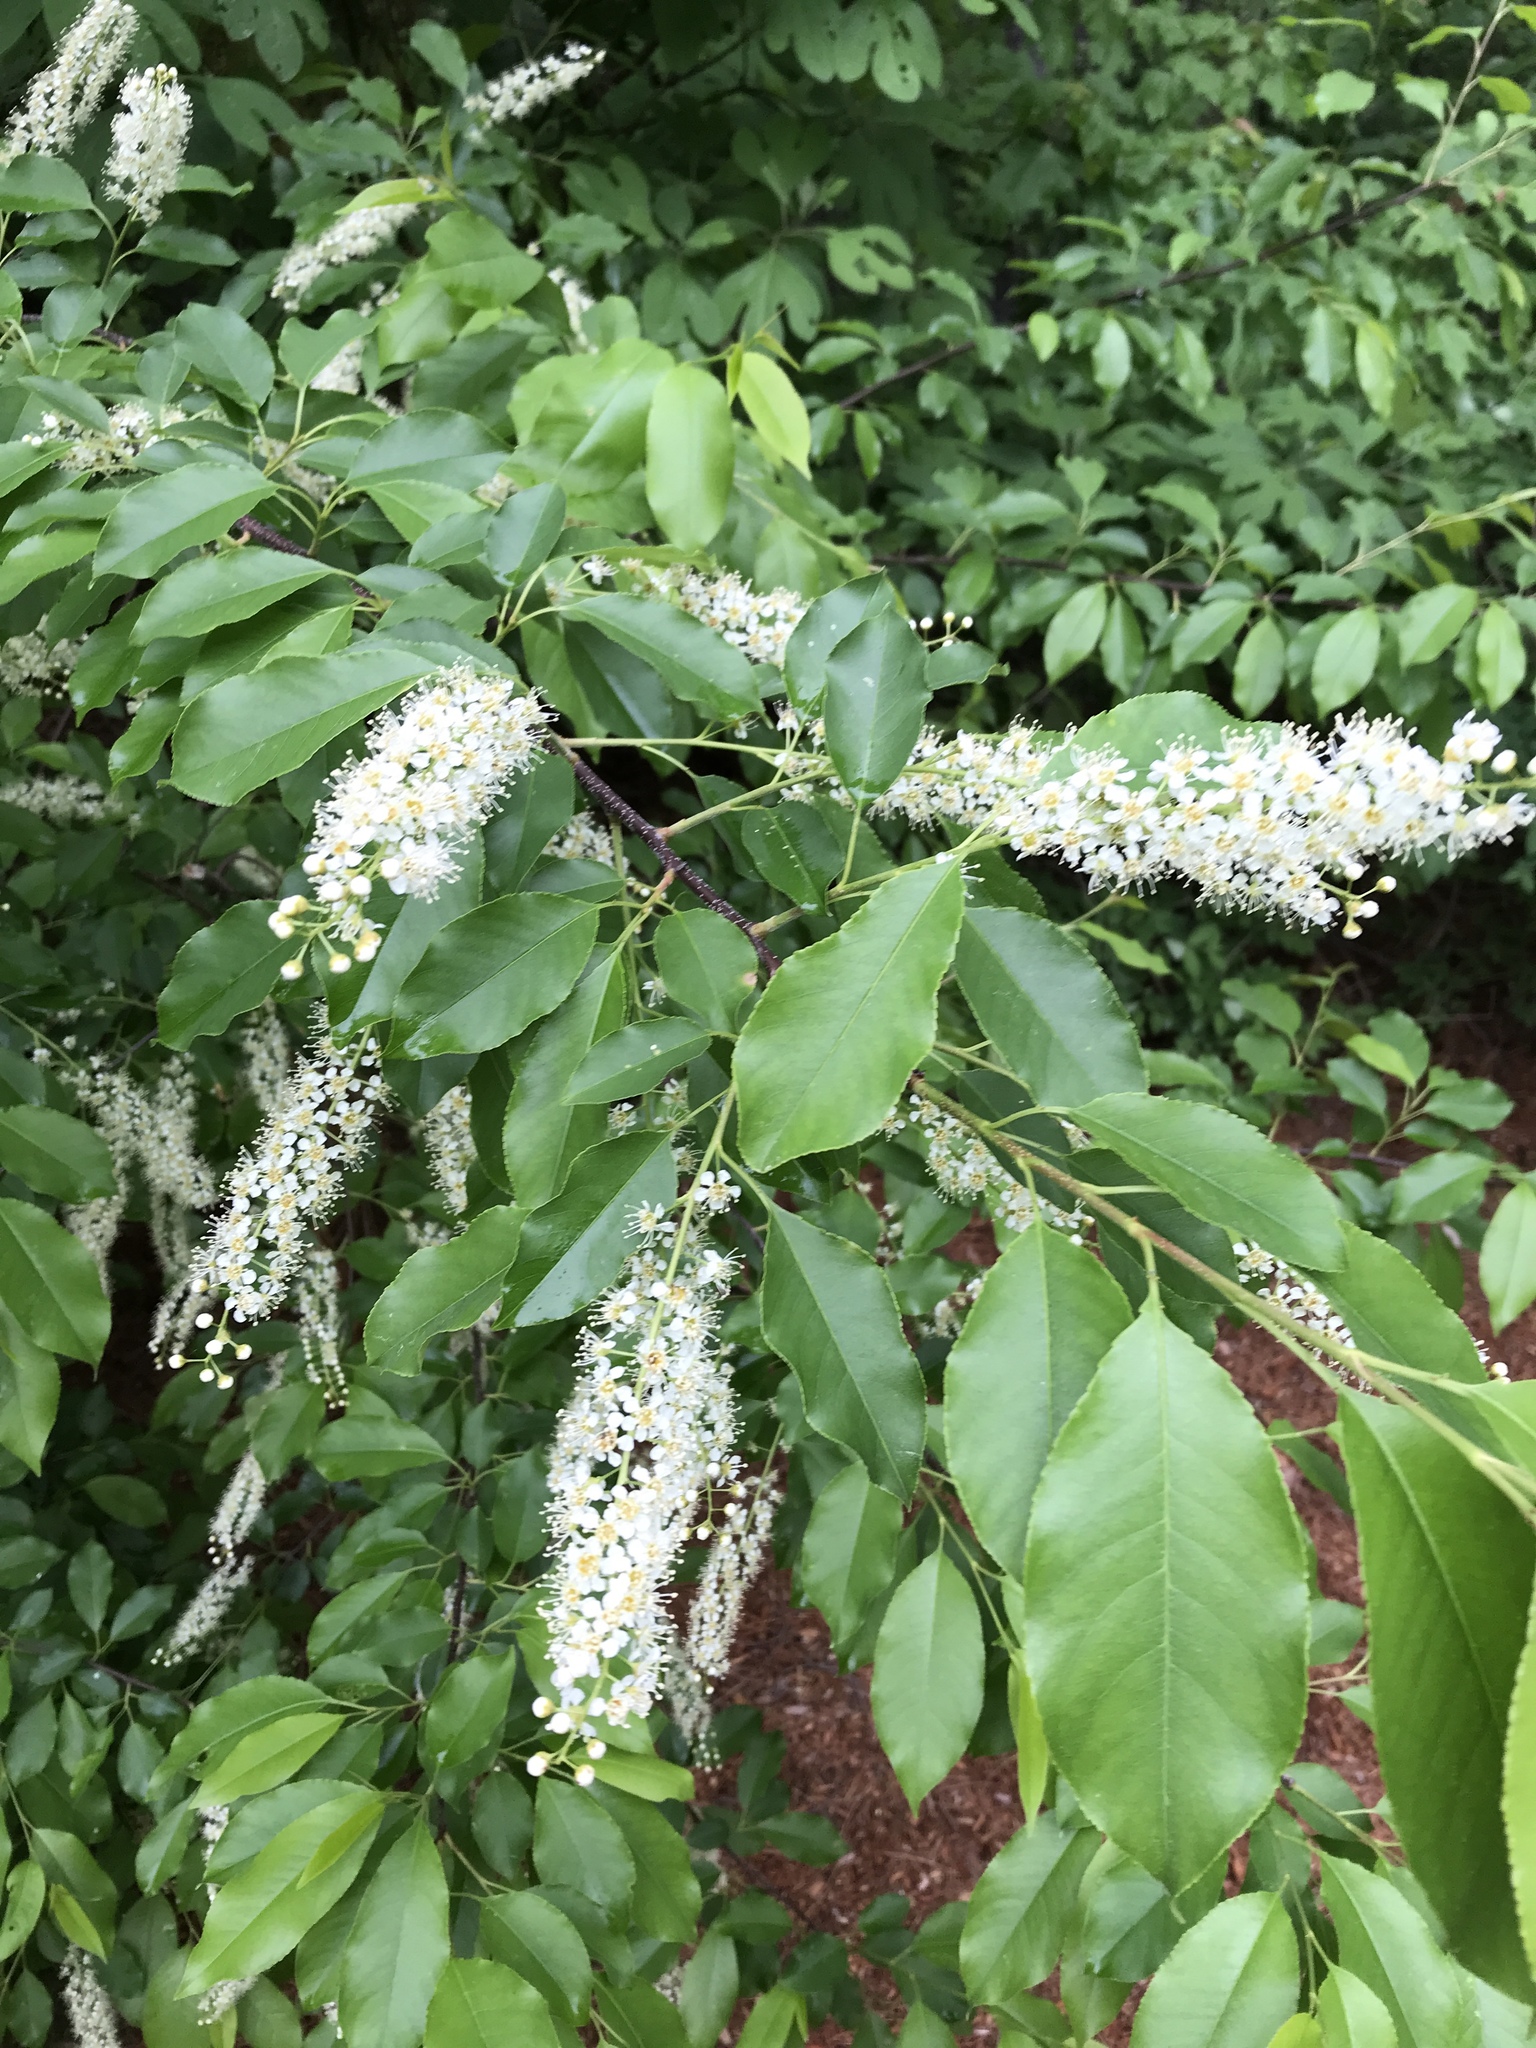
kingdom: Plantae
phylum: Tracheophyta
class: Magnoliopsida
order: Rosales
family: Rosaceae
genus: Prunus
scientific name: Prunus serotina
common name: Black cherry
